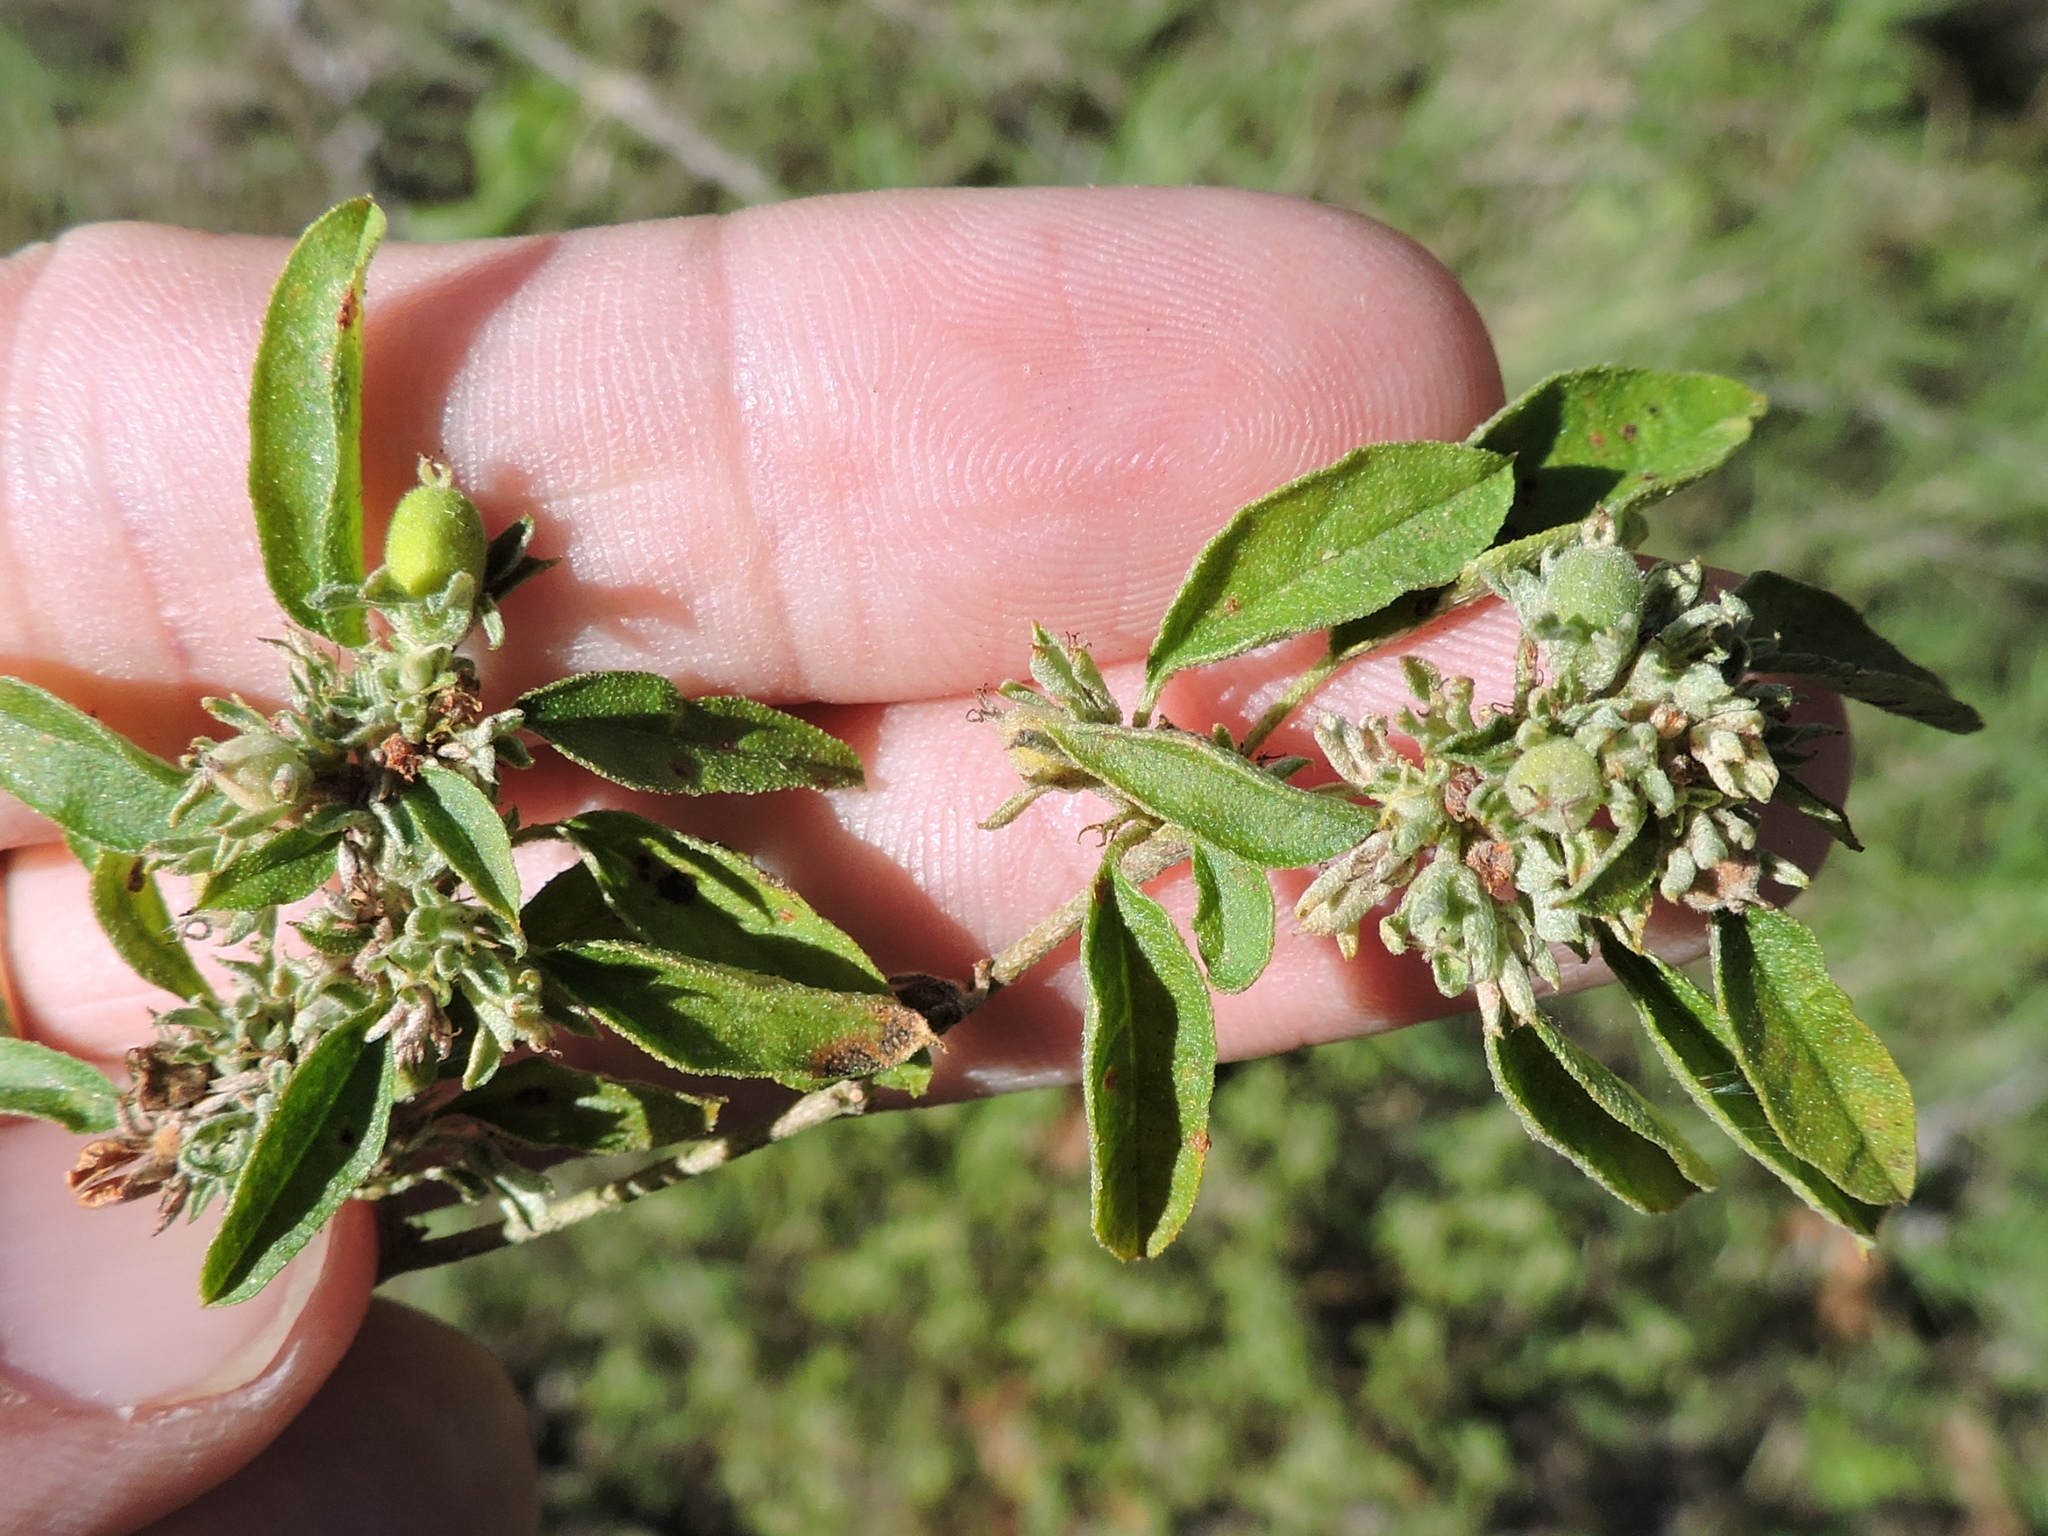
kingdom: Plantae
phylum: Tracheophyta
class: Magnoliopsida
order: Malpighiales
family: Euphorbiaceae
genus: Croton
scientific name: Croton monanthogynus
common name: One-seed croton
